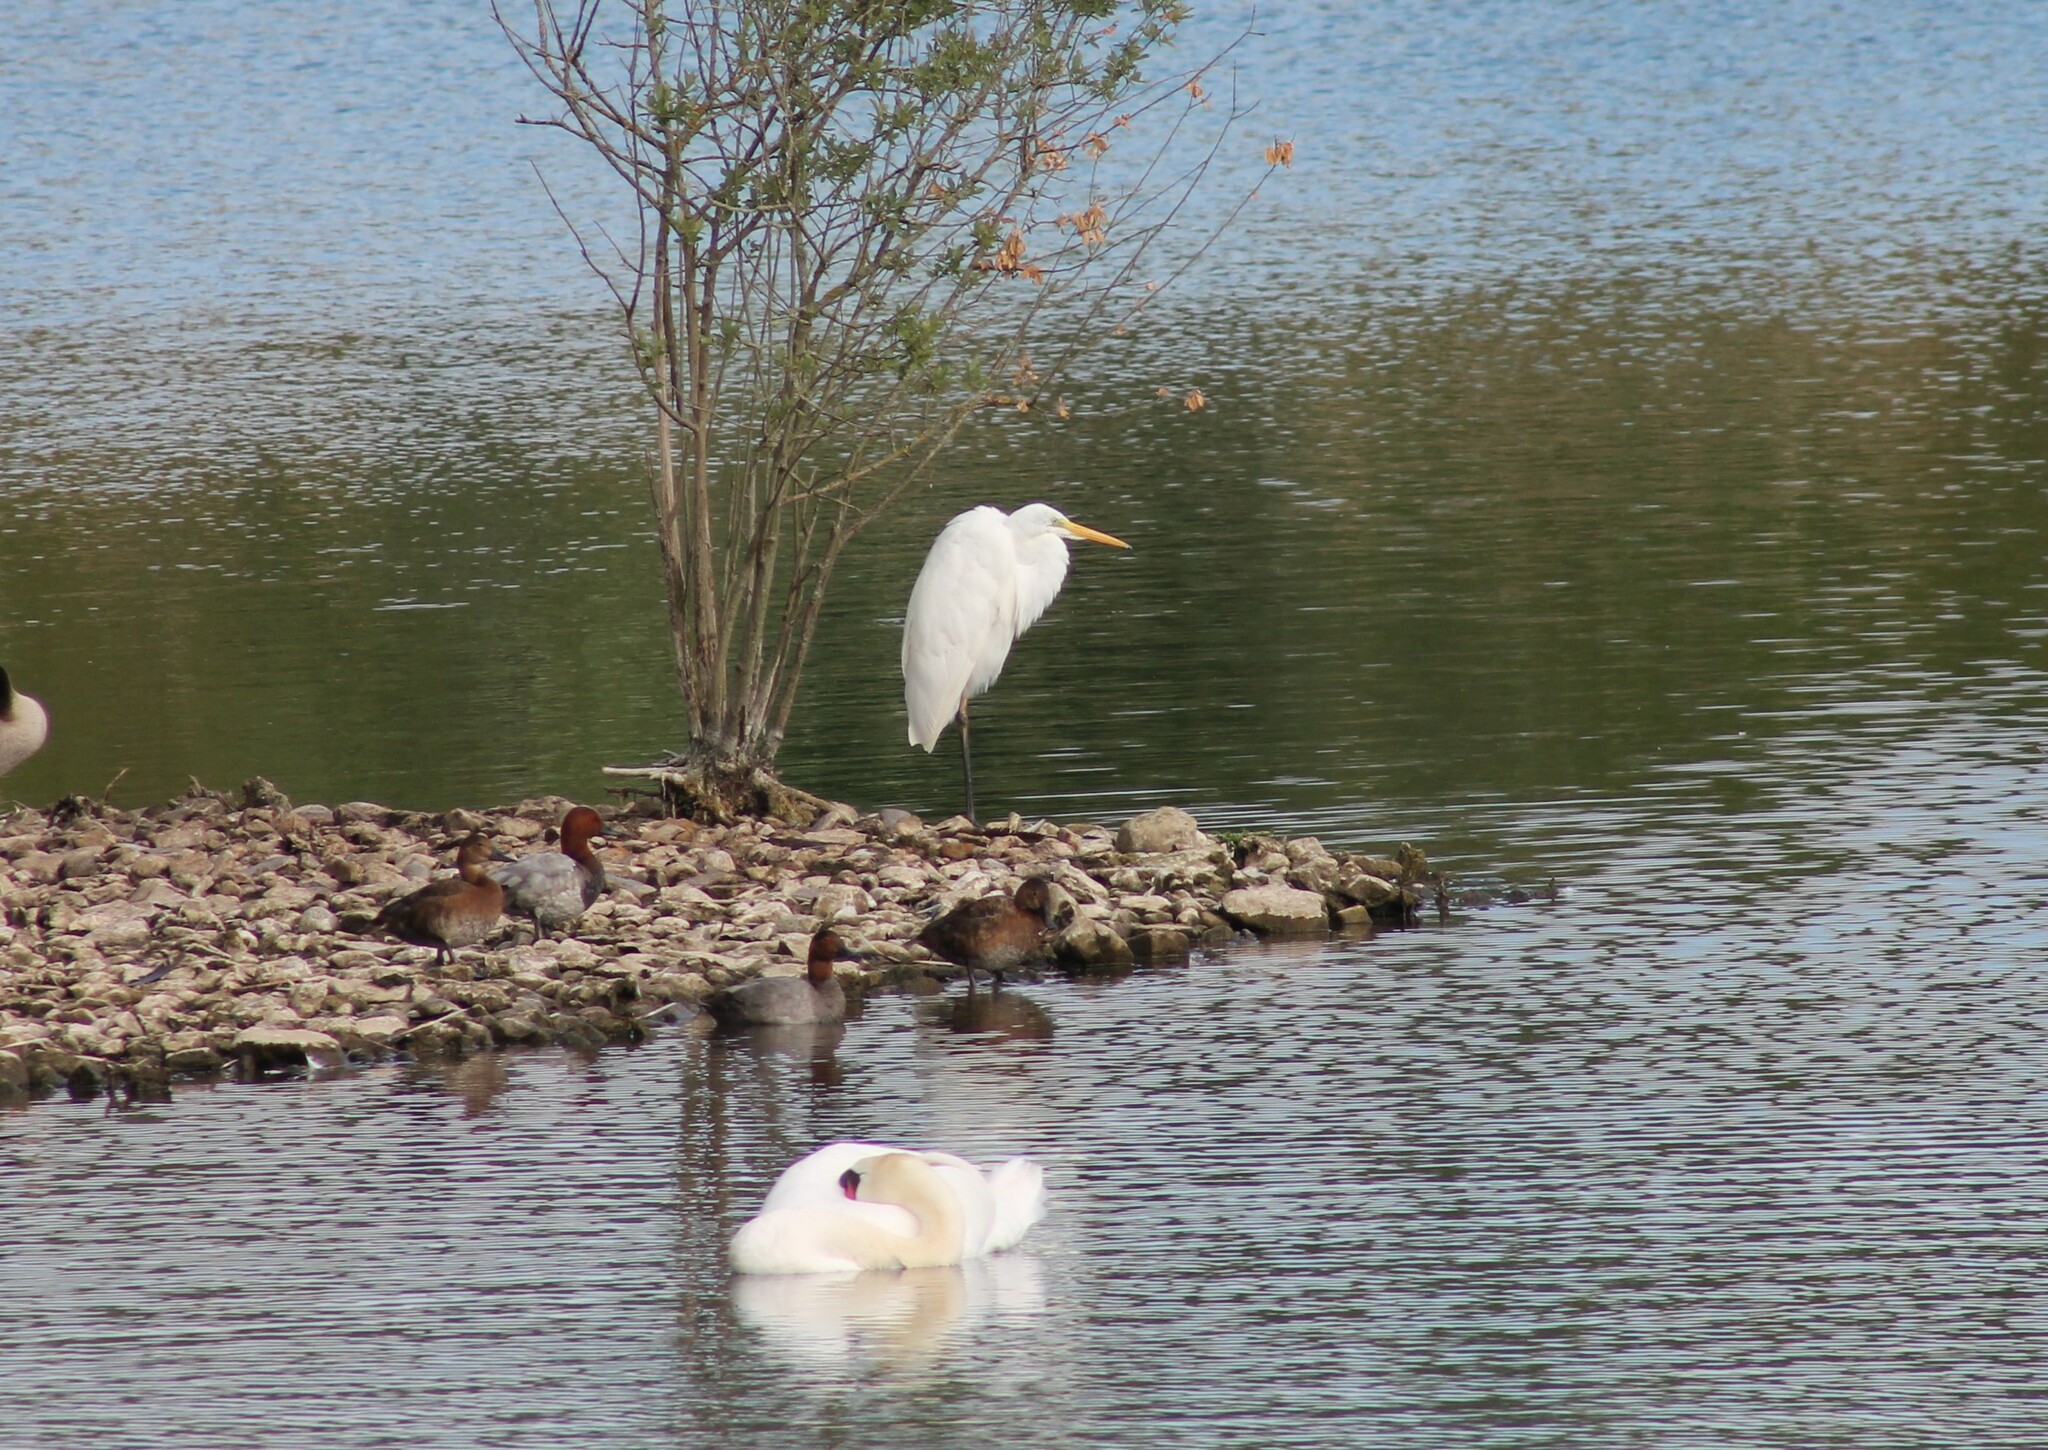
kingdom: Animalia
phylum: Chordata
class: Aves
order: Pelecaniformes
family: Ardeidae
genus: Ardea
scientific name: Ardea alba
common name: Great egret
